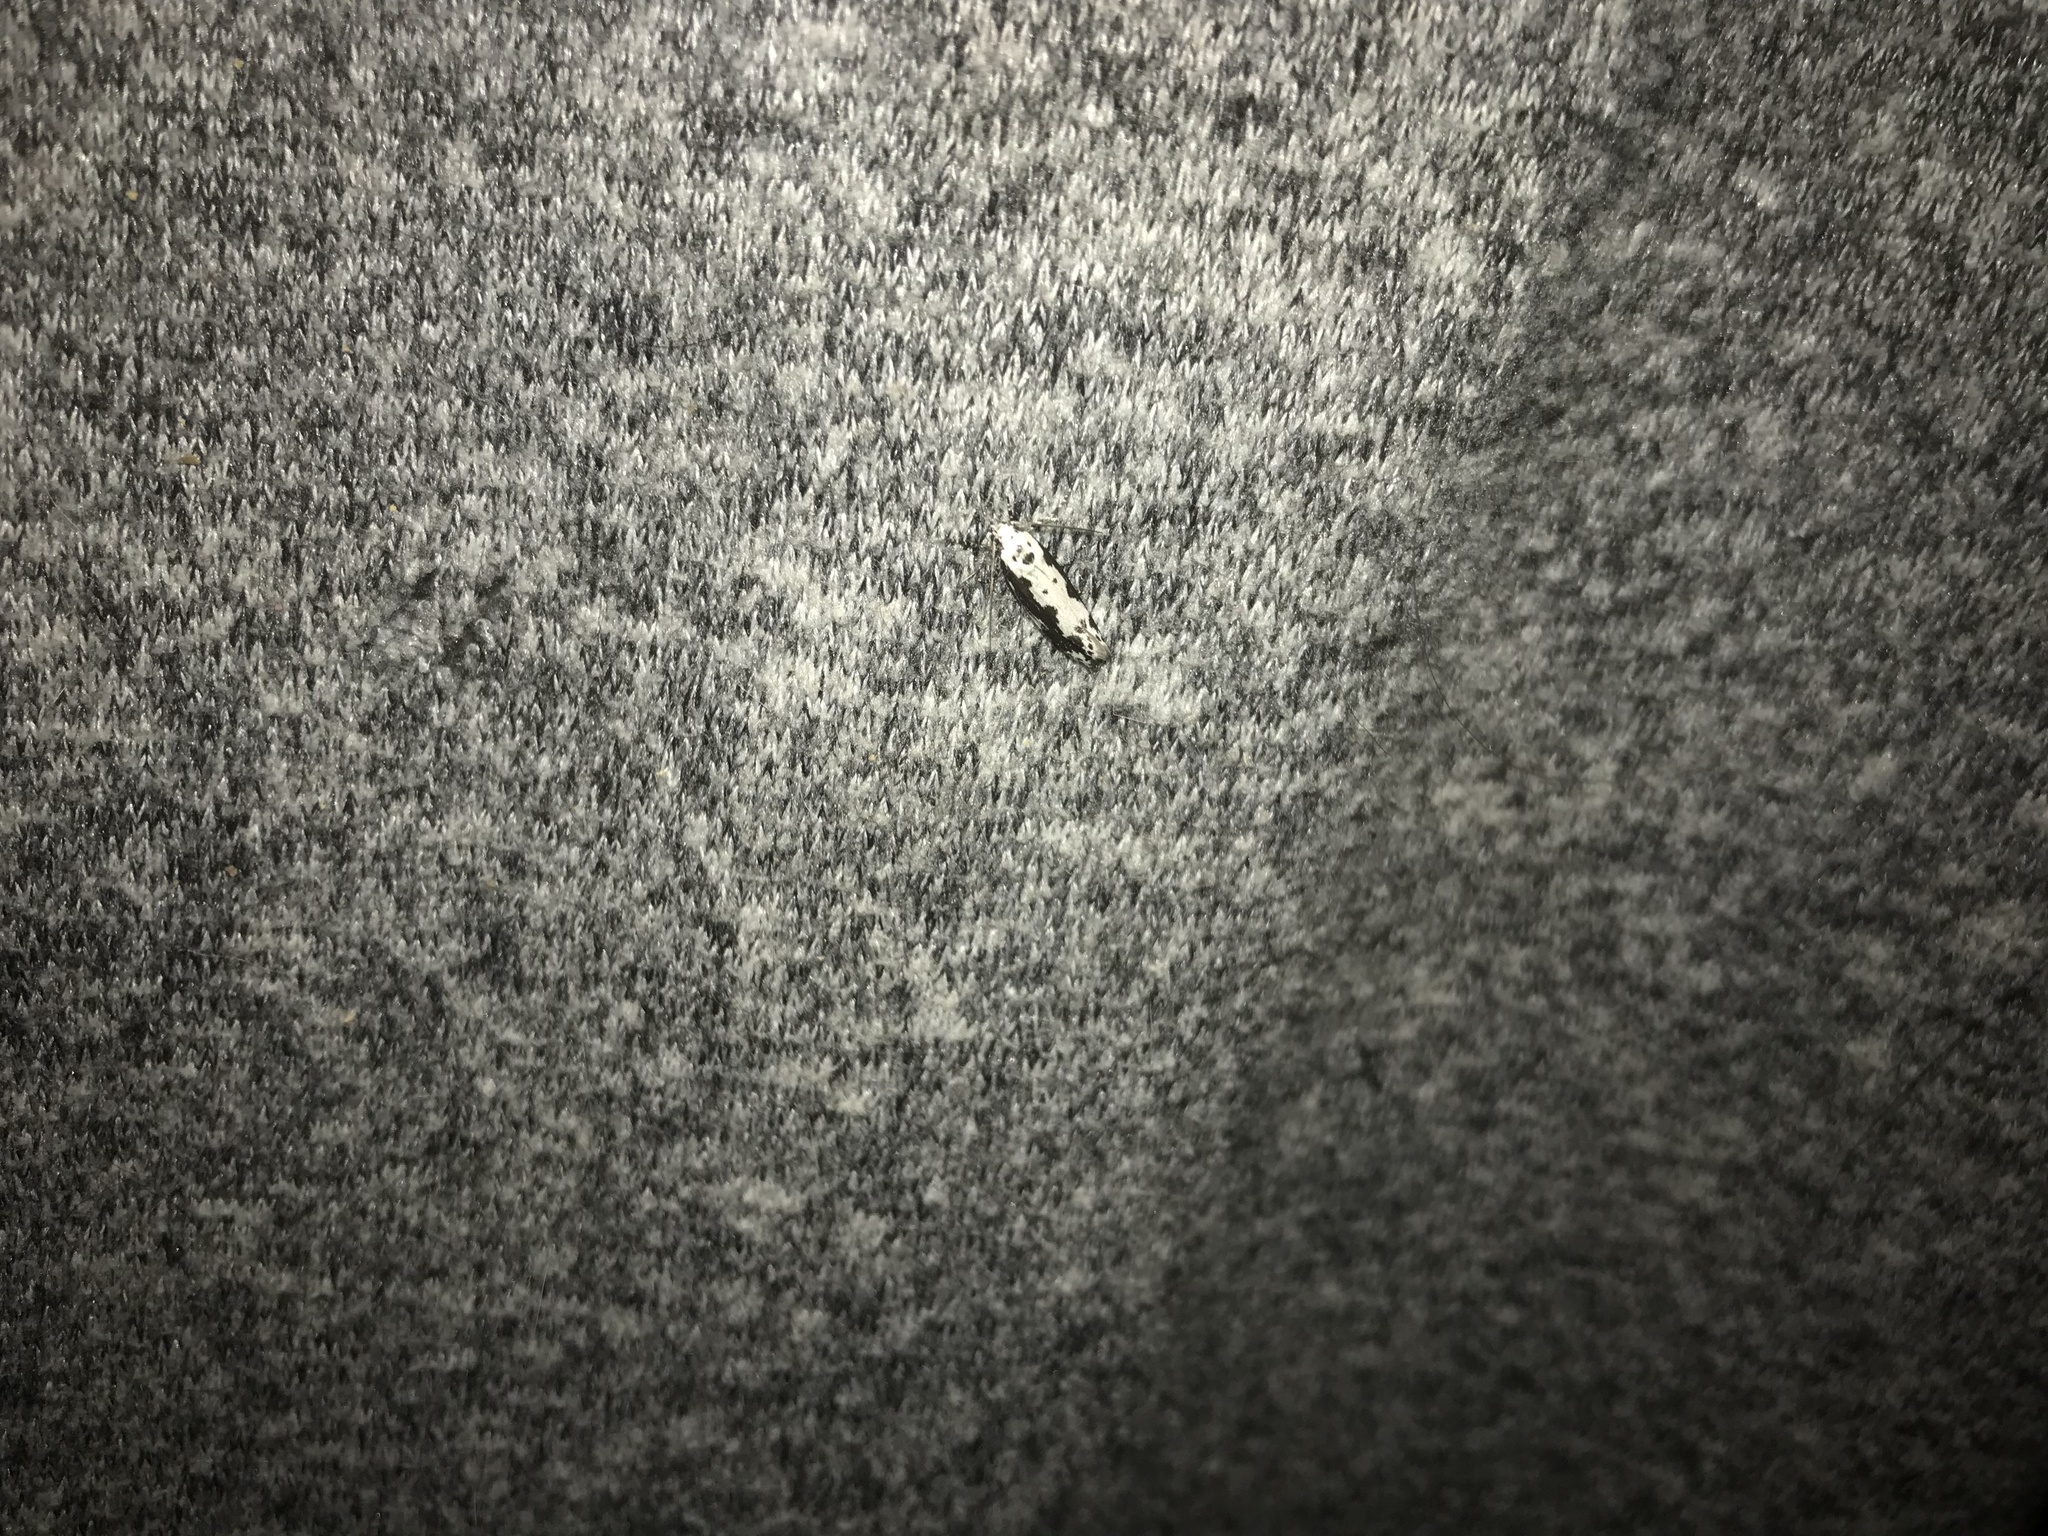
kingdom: Animalia
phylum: Arthropoda
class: Insecta
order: Lepidoptera
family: Ethmiidae
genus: Ethmia
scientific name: Ethmia marmorea
